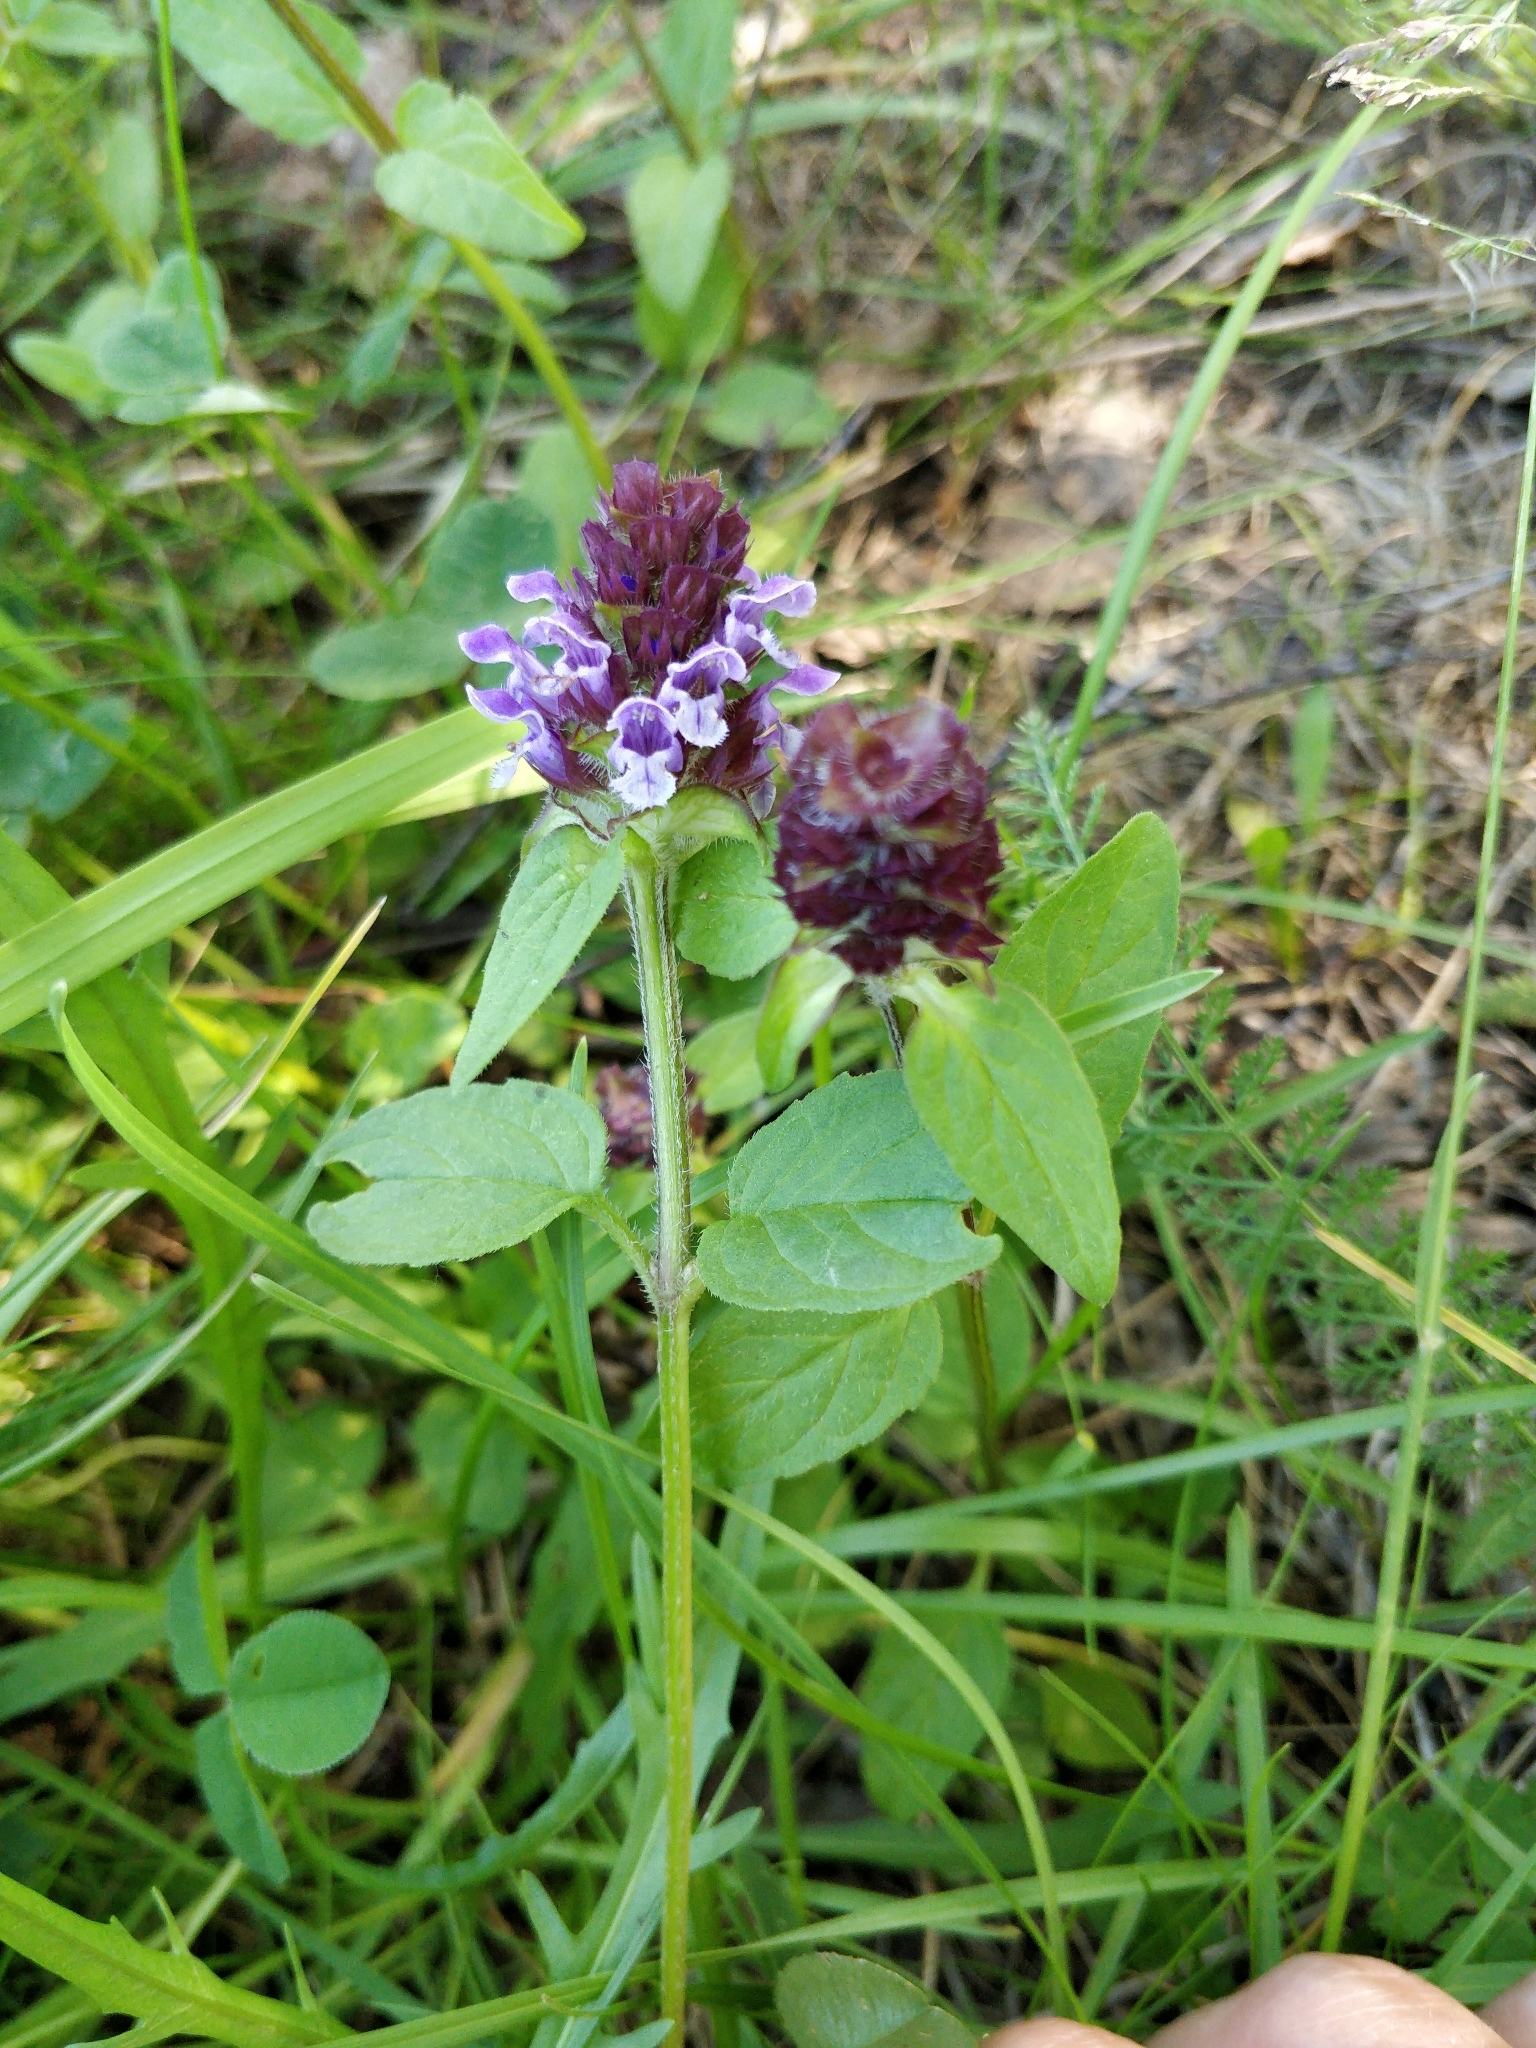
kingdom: Plantae
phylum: Tracheophyta
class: Magnoliopsida
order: Lamiales
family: Lamiaceae
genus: Prunella
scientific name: Prunella vulgaris
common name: Heal-all
